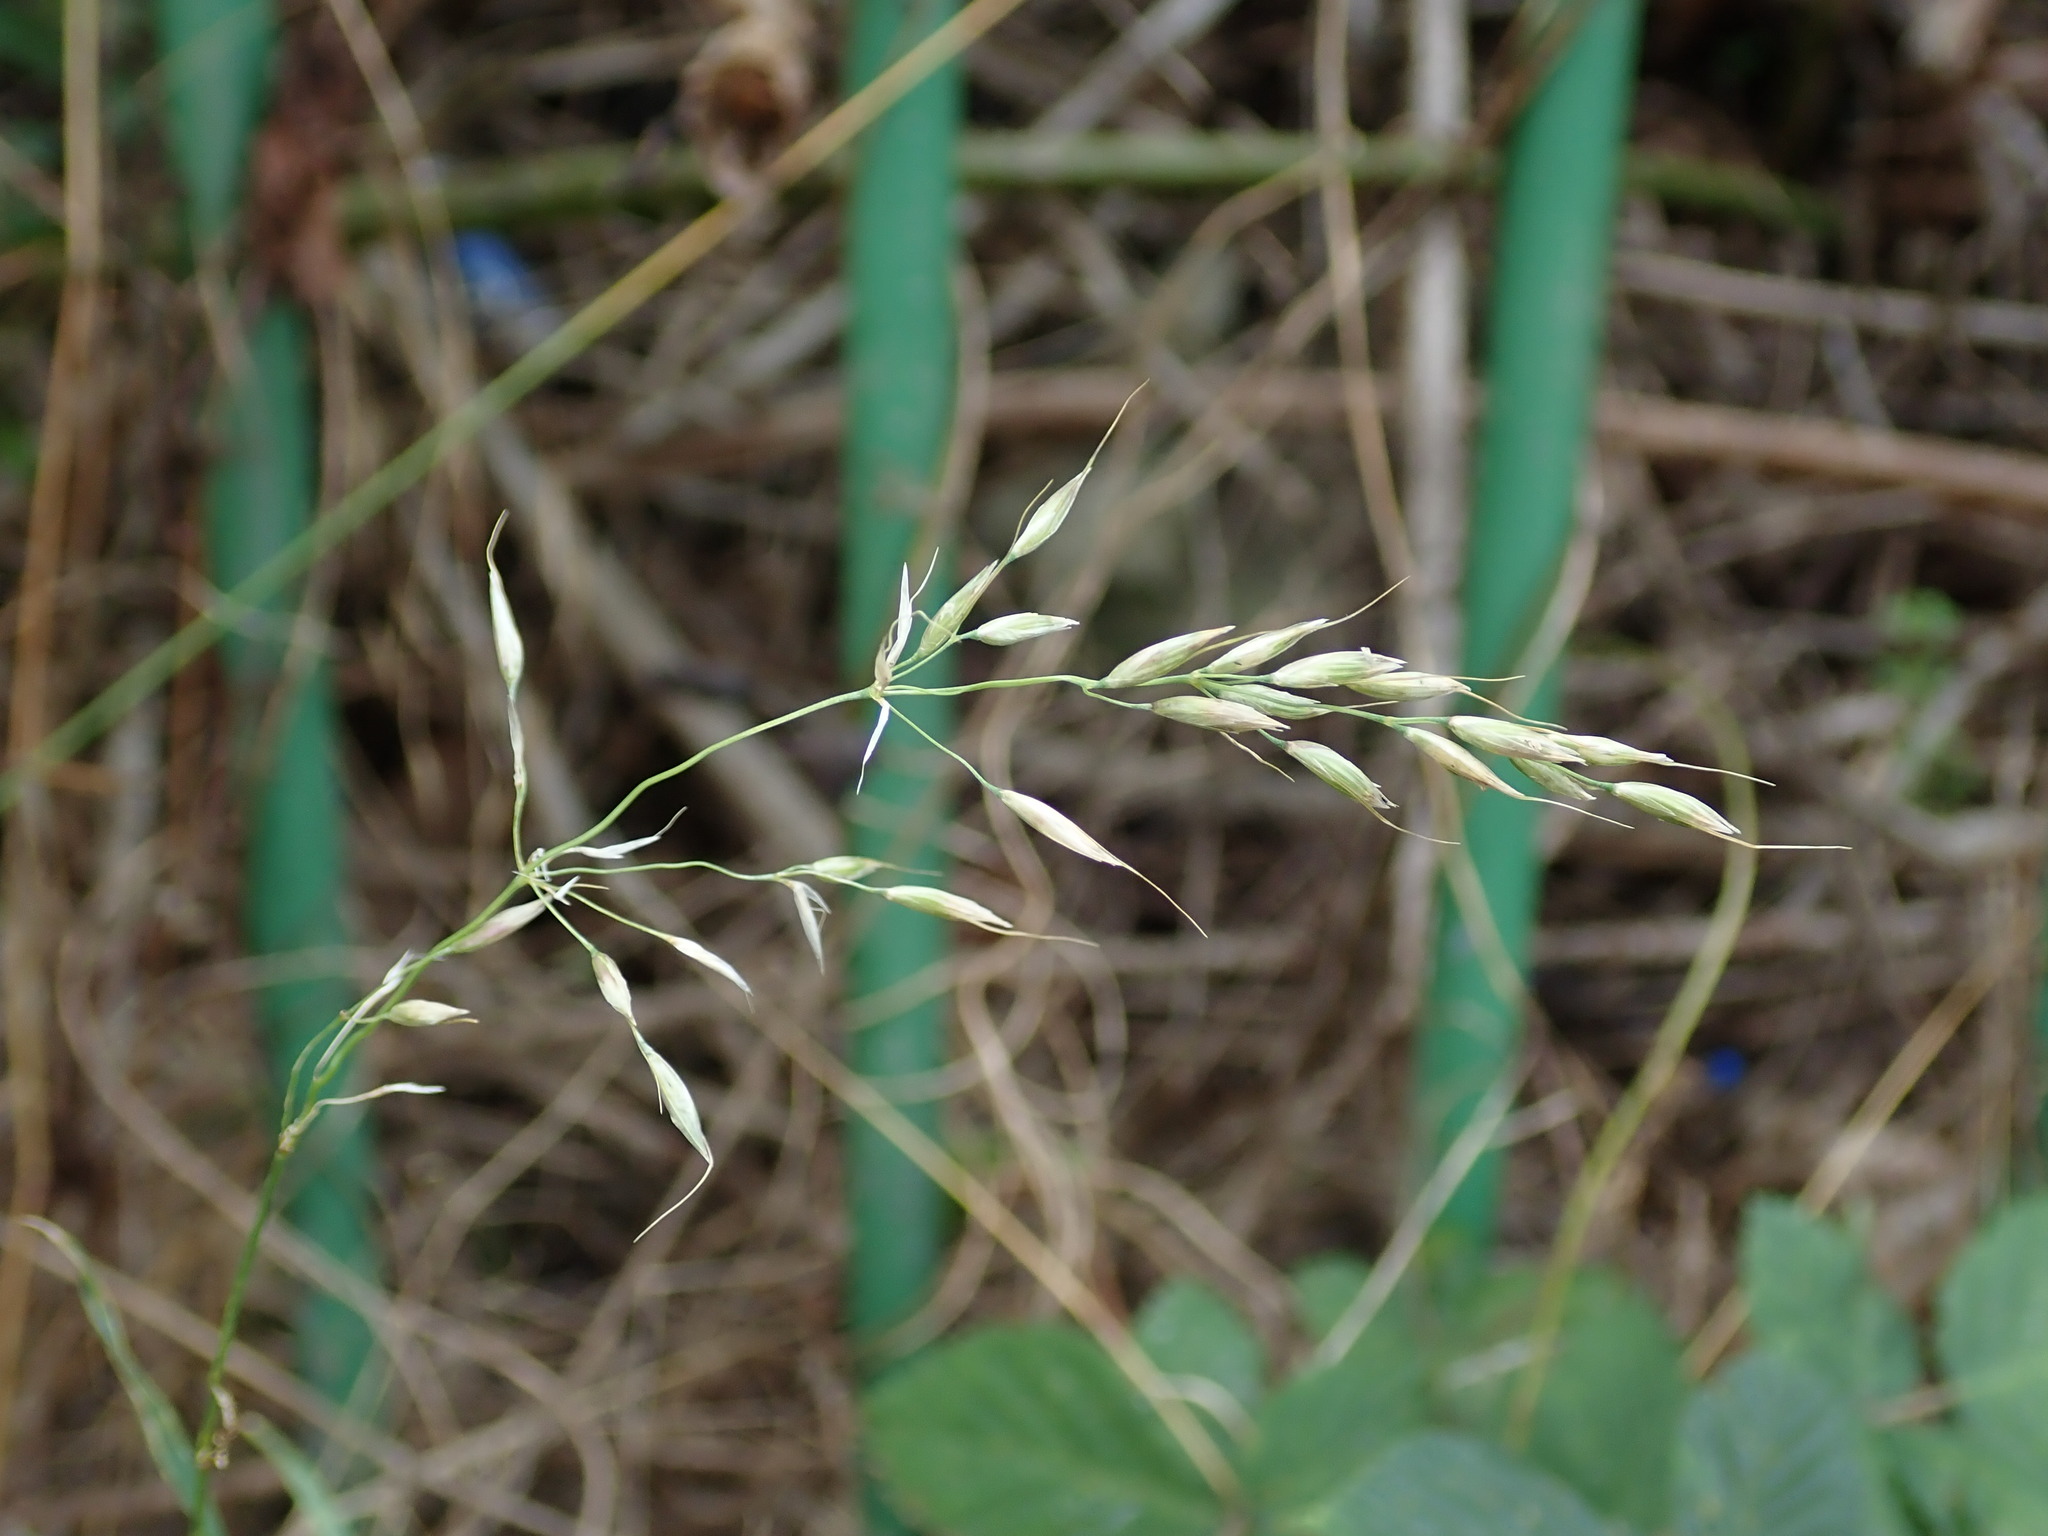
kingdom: Plantae
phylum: Tracheophyta
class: Liliopsida
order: Poales
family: Poaceae
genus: Arrhenatherum
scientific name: Arrhenatherum elatius
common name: Tall oatgrass
